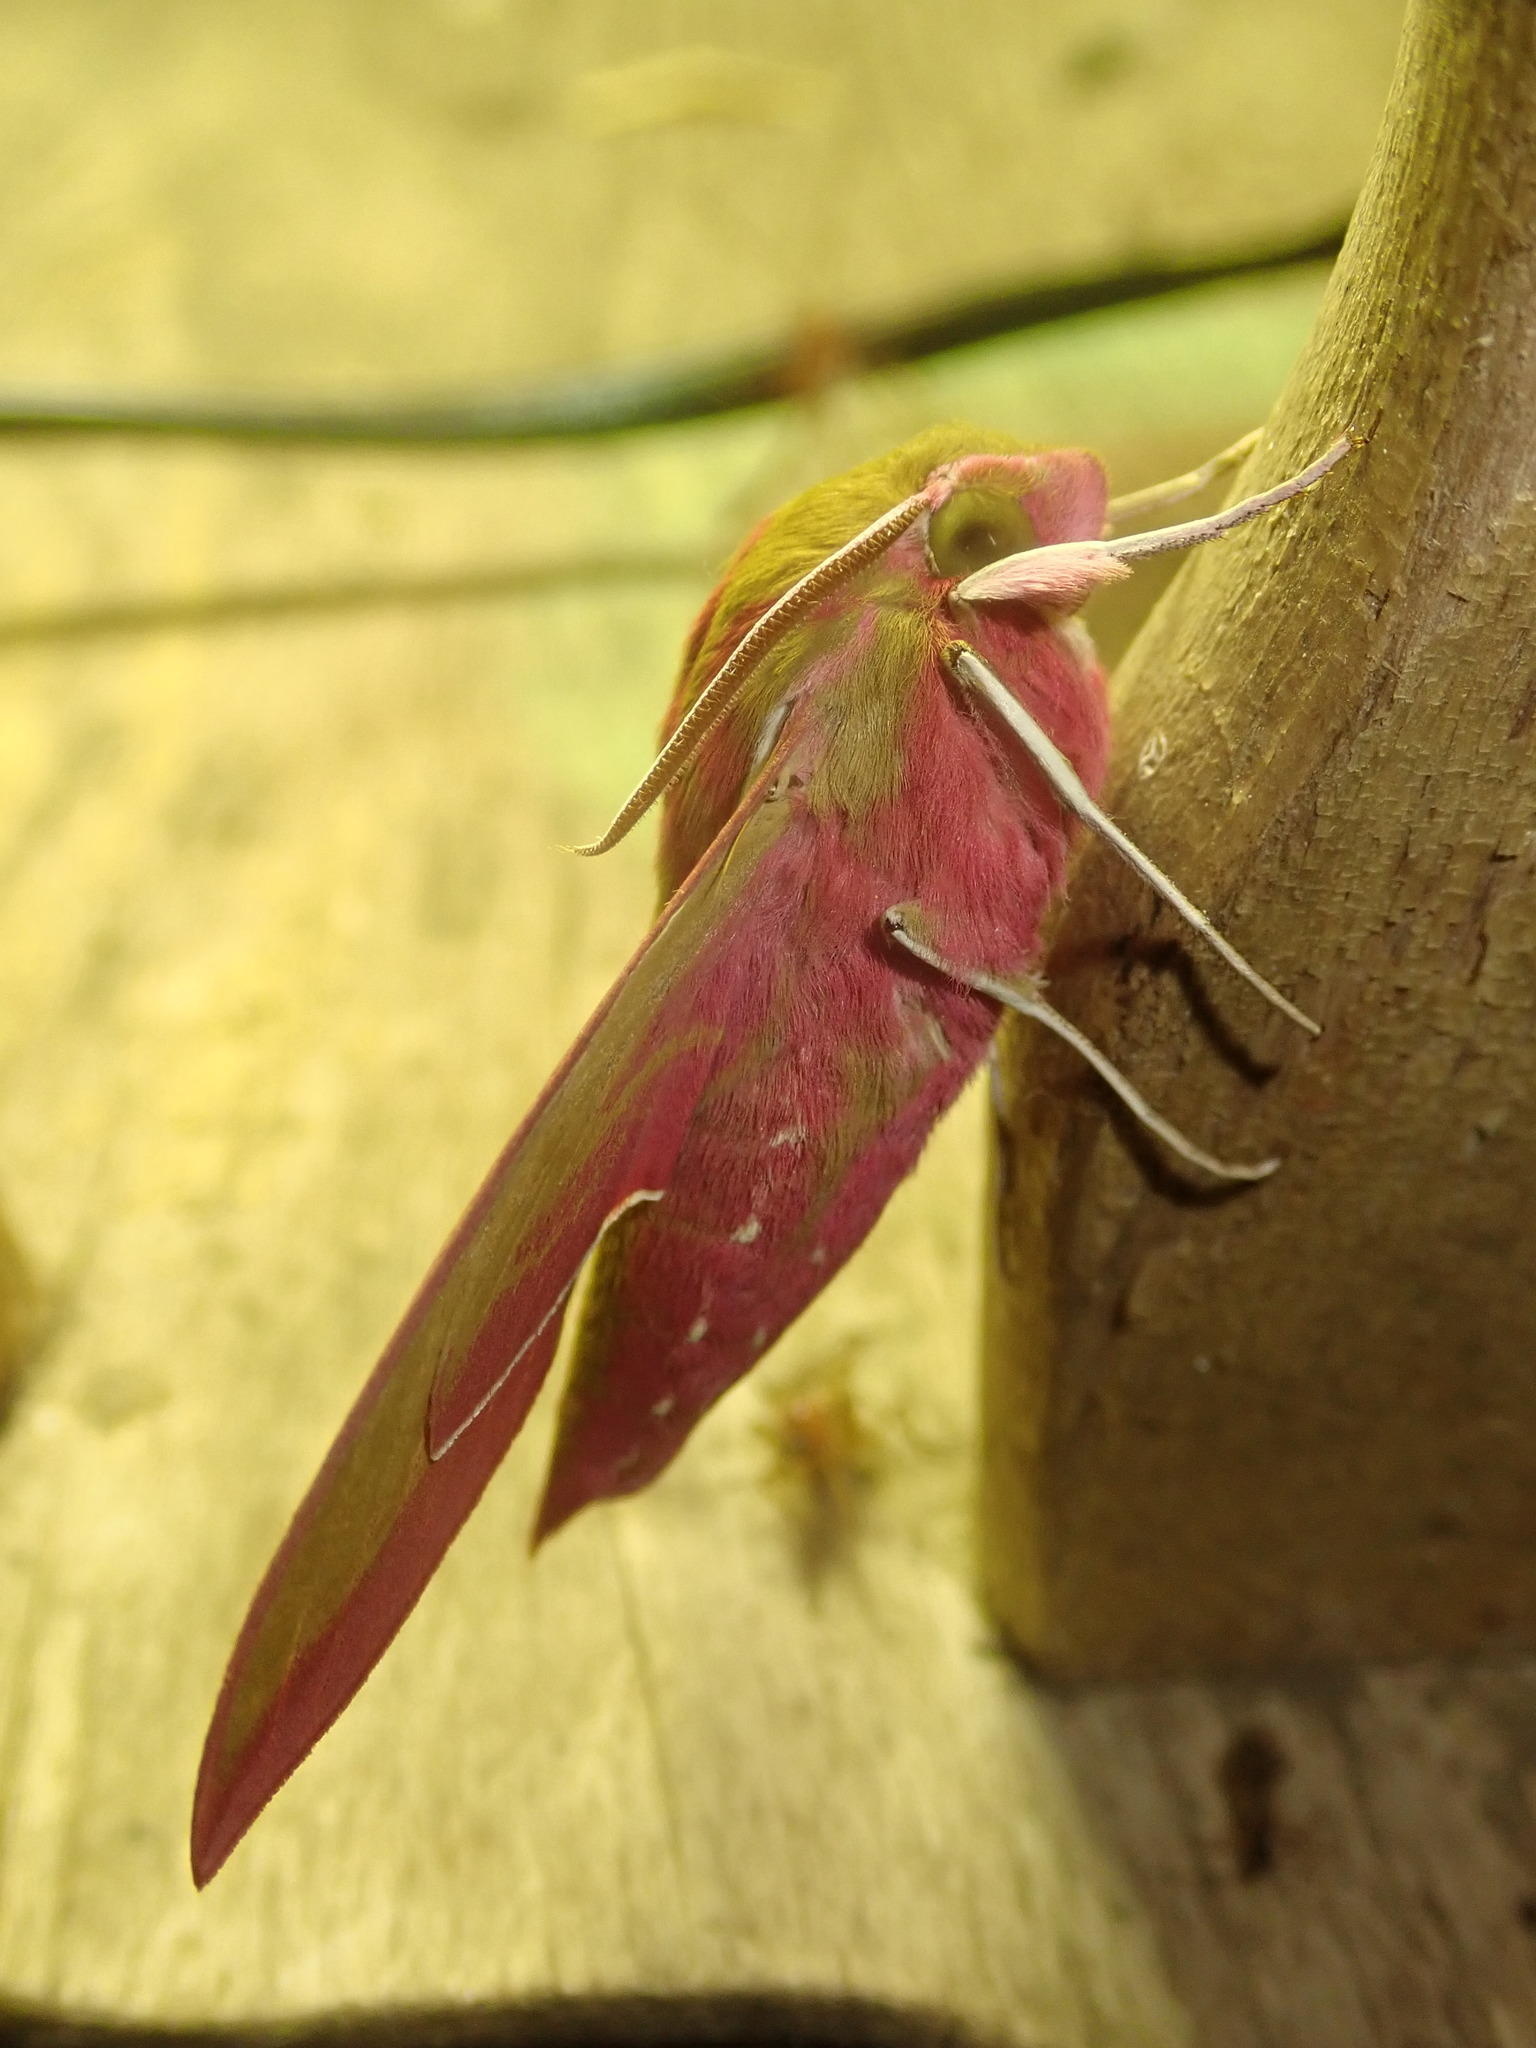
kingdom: Animalia
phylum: Arthropoda
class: Insecta
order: Lepidoptera
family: Sphingidae
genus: Deilephila
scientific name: Deilephila elpenor
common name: Elephant hawk-moth
